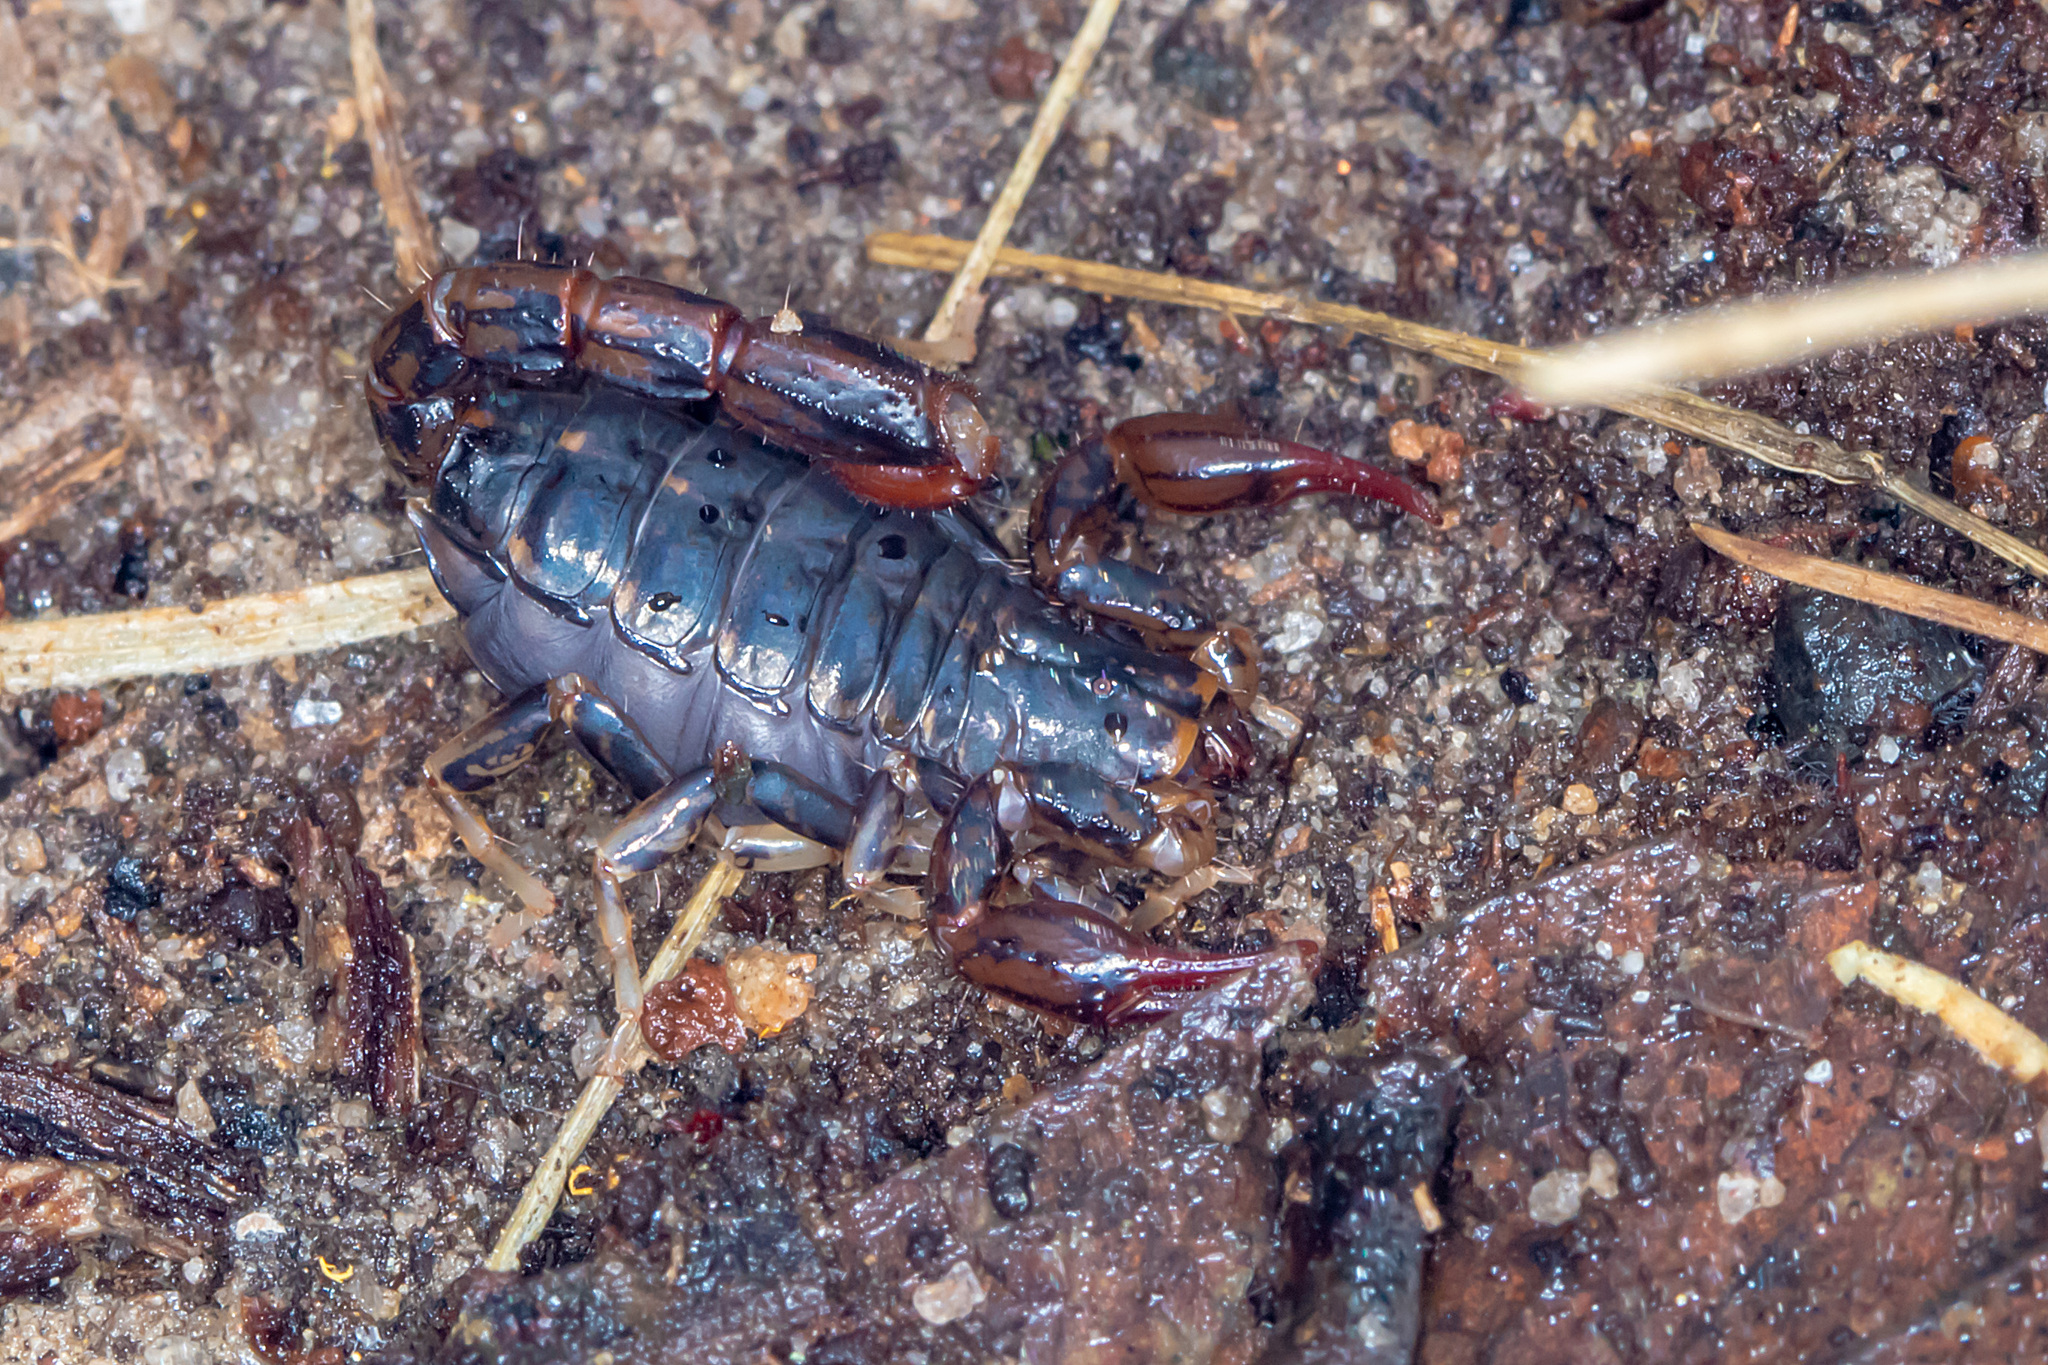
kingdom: Animalia
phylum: Arthropoda
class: Arachnida
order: Scorpiones
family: Bothriuridae
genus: Cercophonius
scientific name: Cercophonius squama
